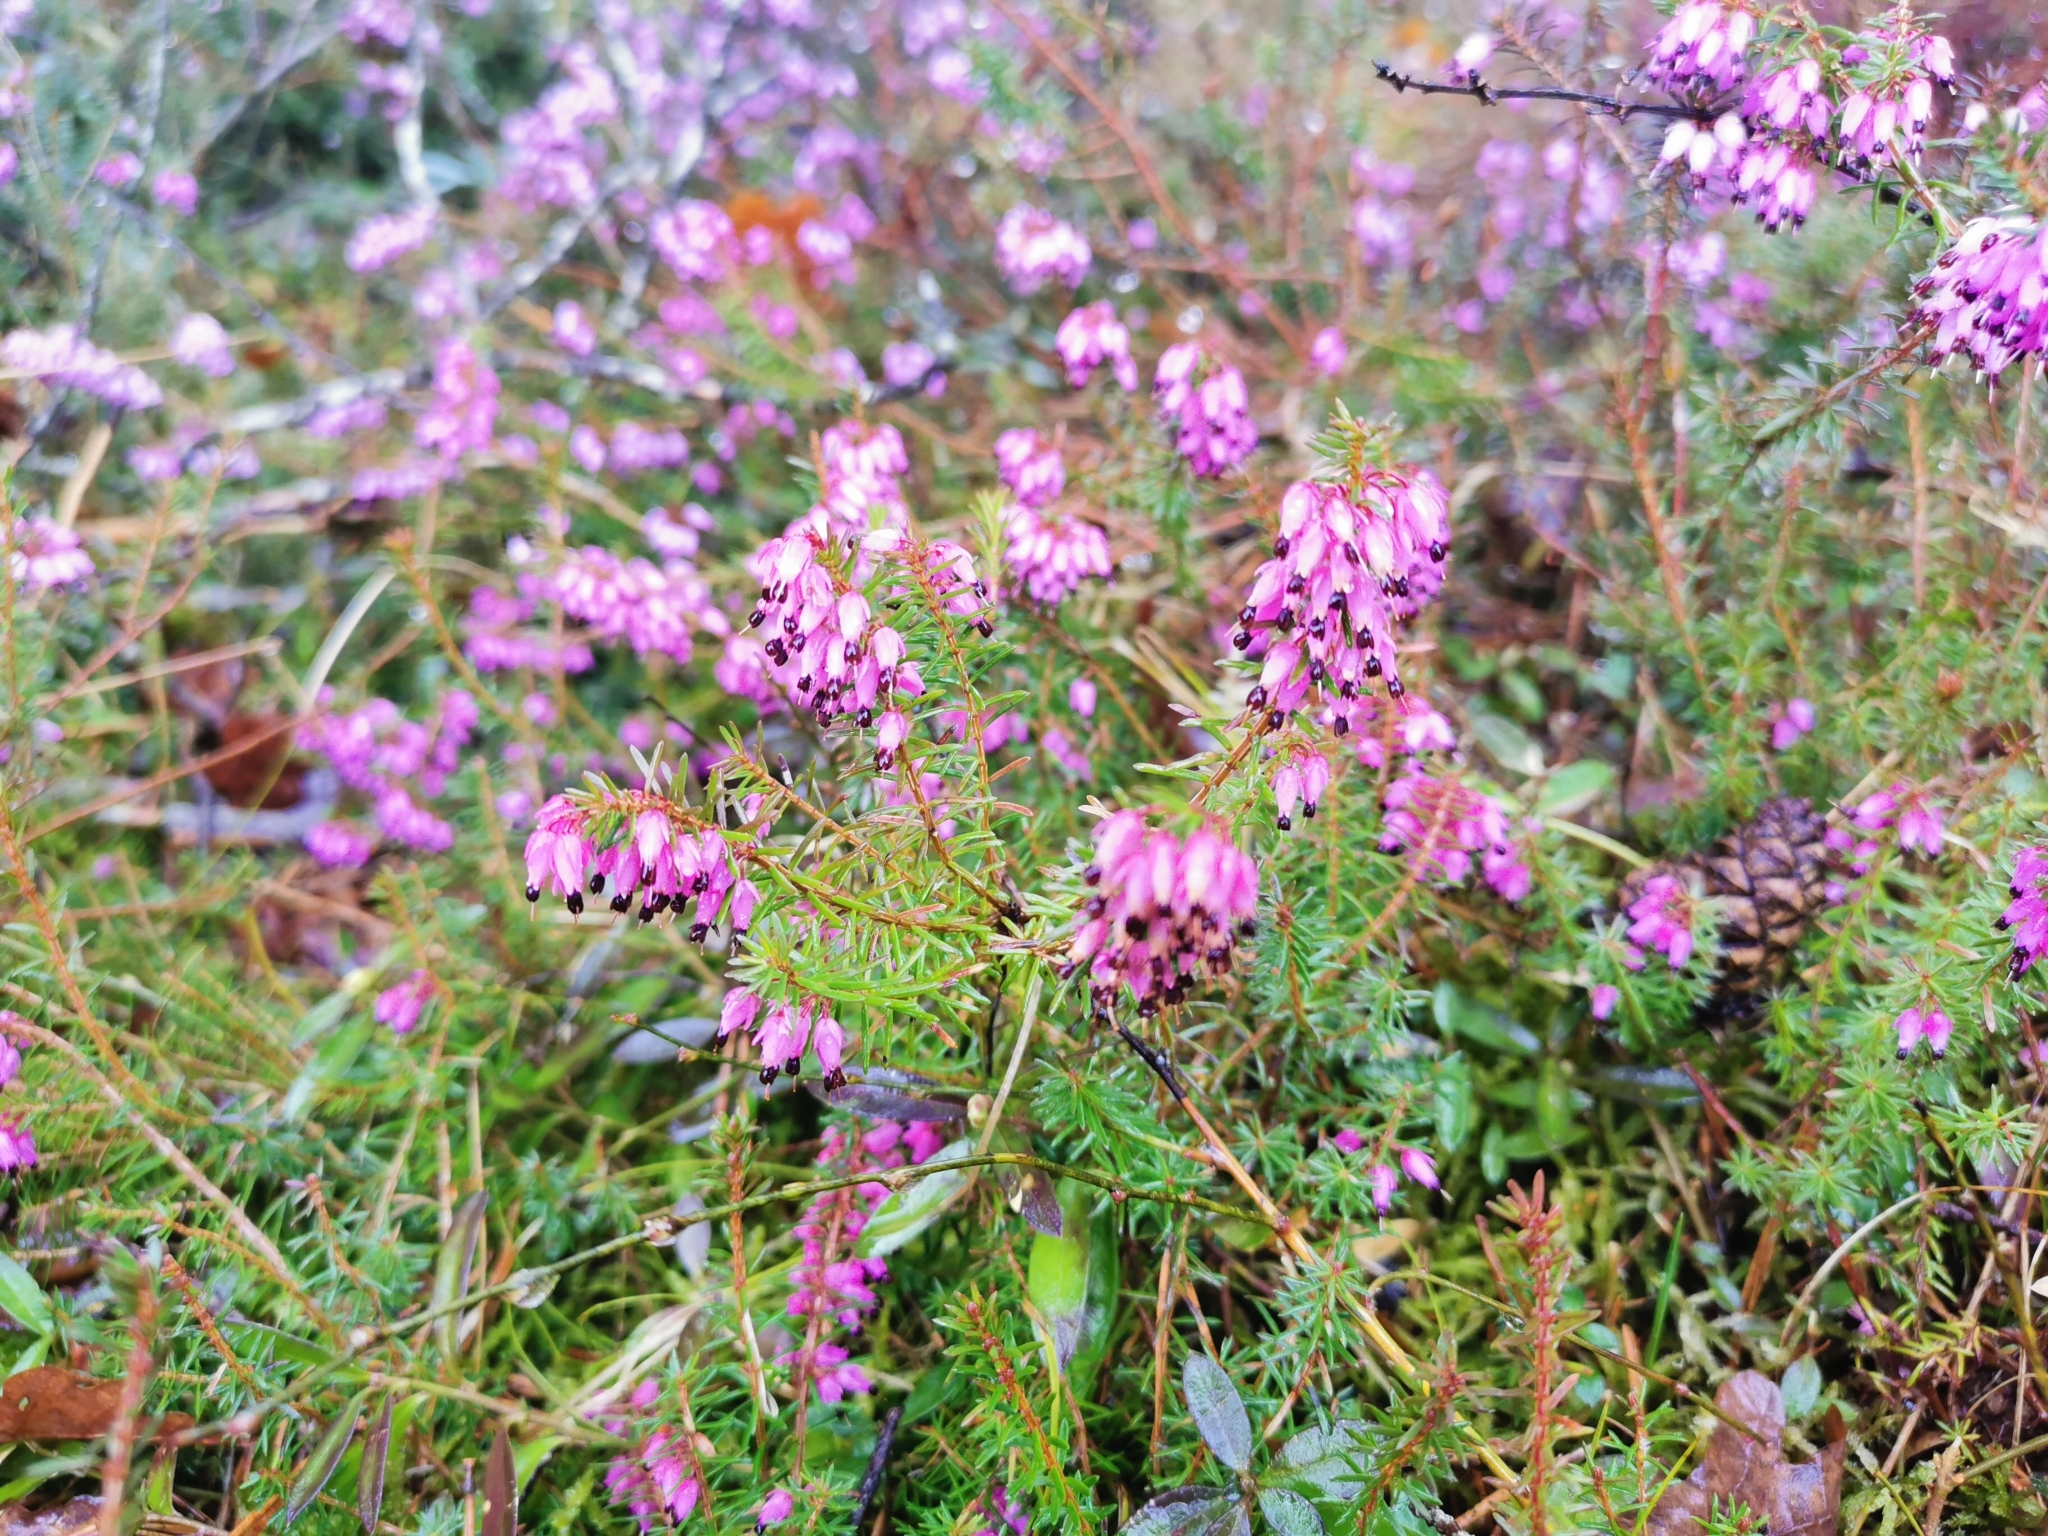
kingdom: Plantae
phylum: Tracheophyta
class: Magnoliopsida
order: Ericales
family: Ericaceae
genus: Erica
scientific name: Erica carnea
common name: Winter heath
